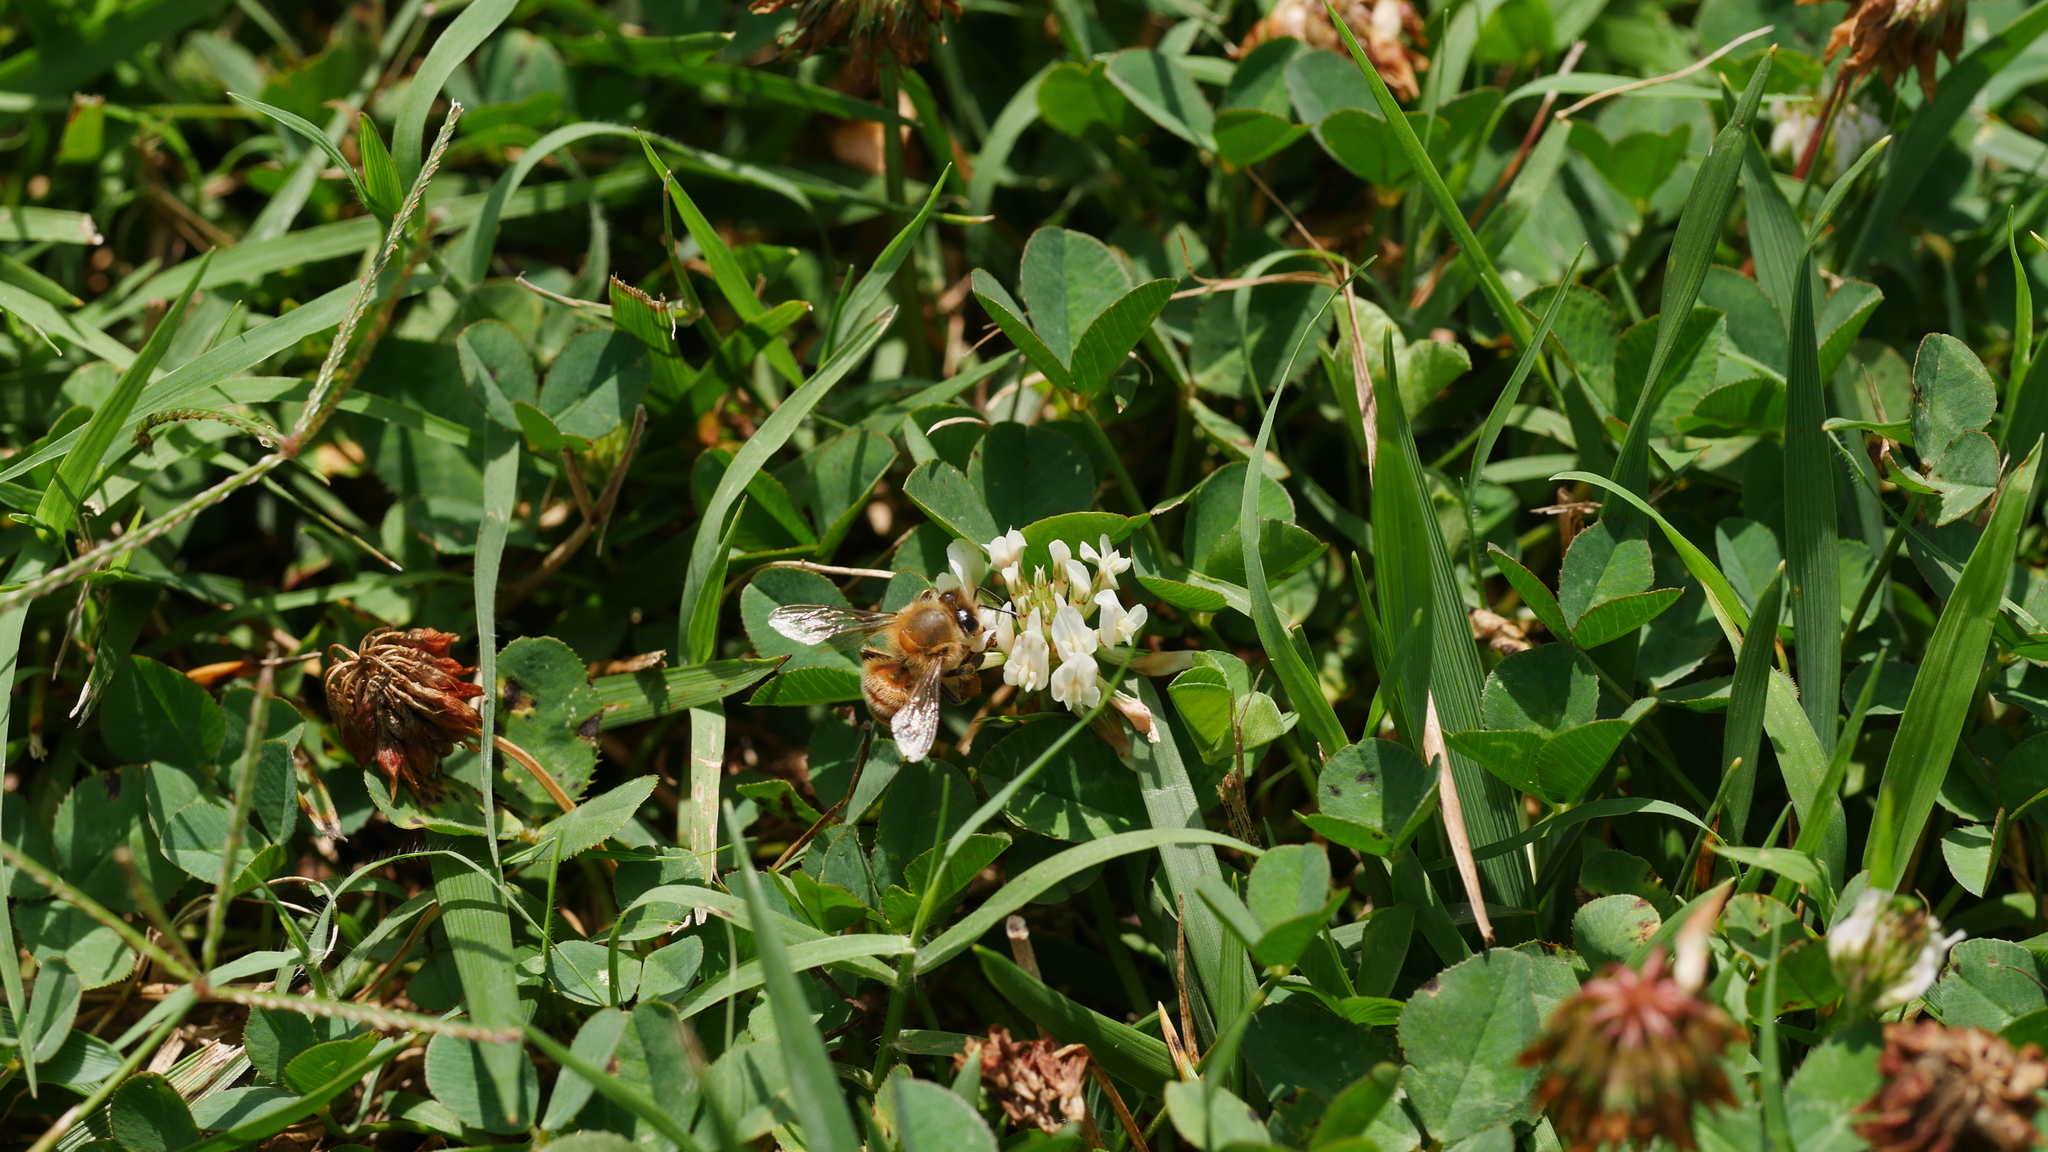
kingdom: Animalia
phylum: Arthropoda
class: Insecta
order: Hymenoptera
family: Apidae
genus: Apis
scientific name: Apis mellifera
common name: Honey bee
